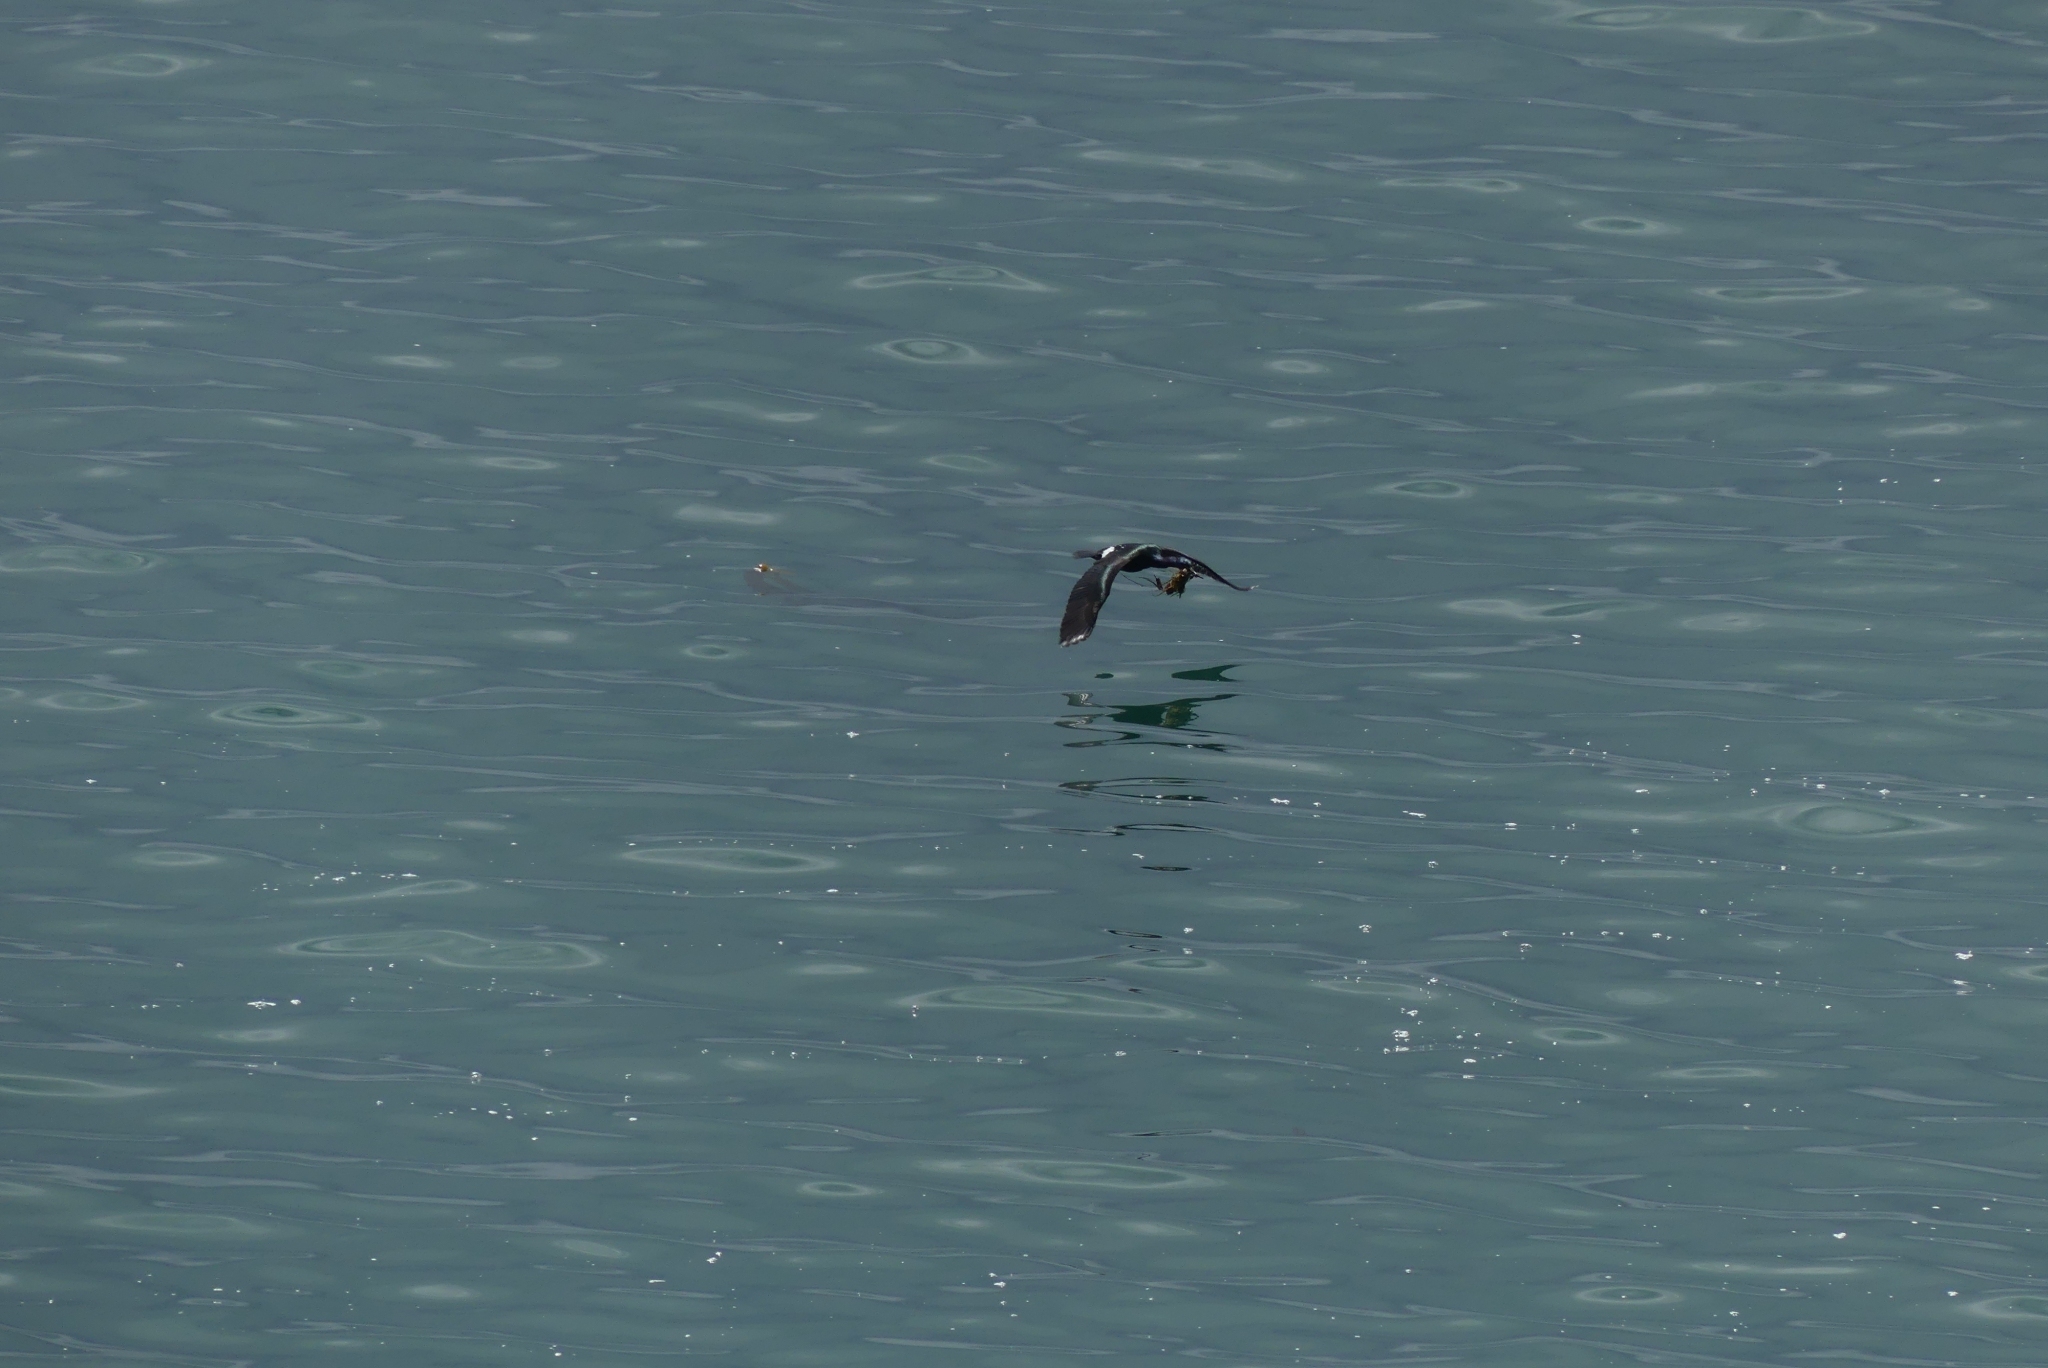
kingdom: Animalia
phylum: Chordata
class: Aves
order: Suliformes
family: Phalacrocoracidae
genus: Phalacrocorax
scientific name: Phalacrocorax pelagicus
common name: Pelagic cormorant
